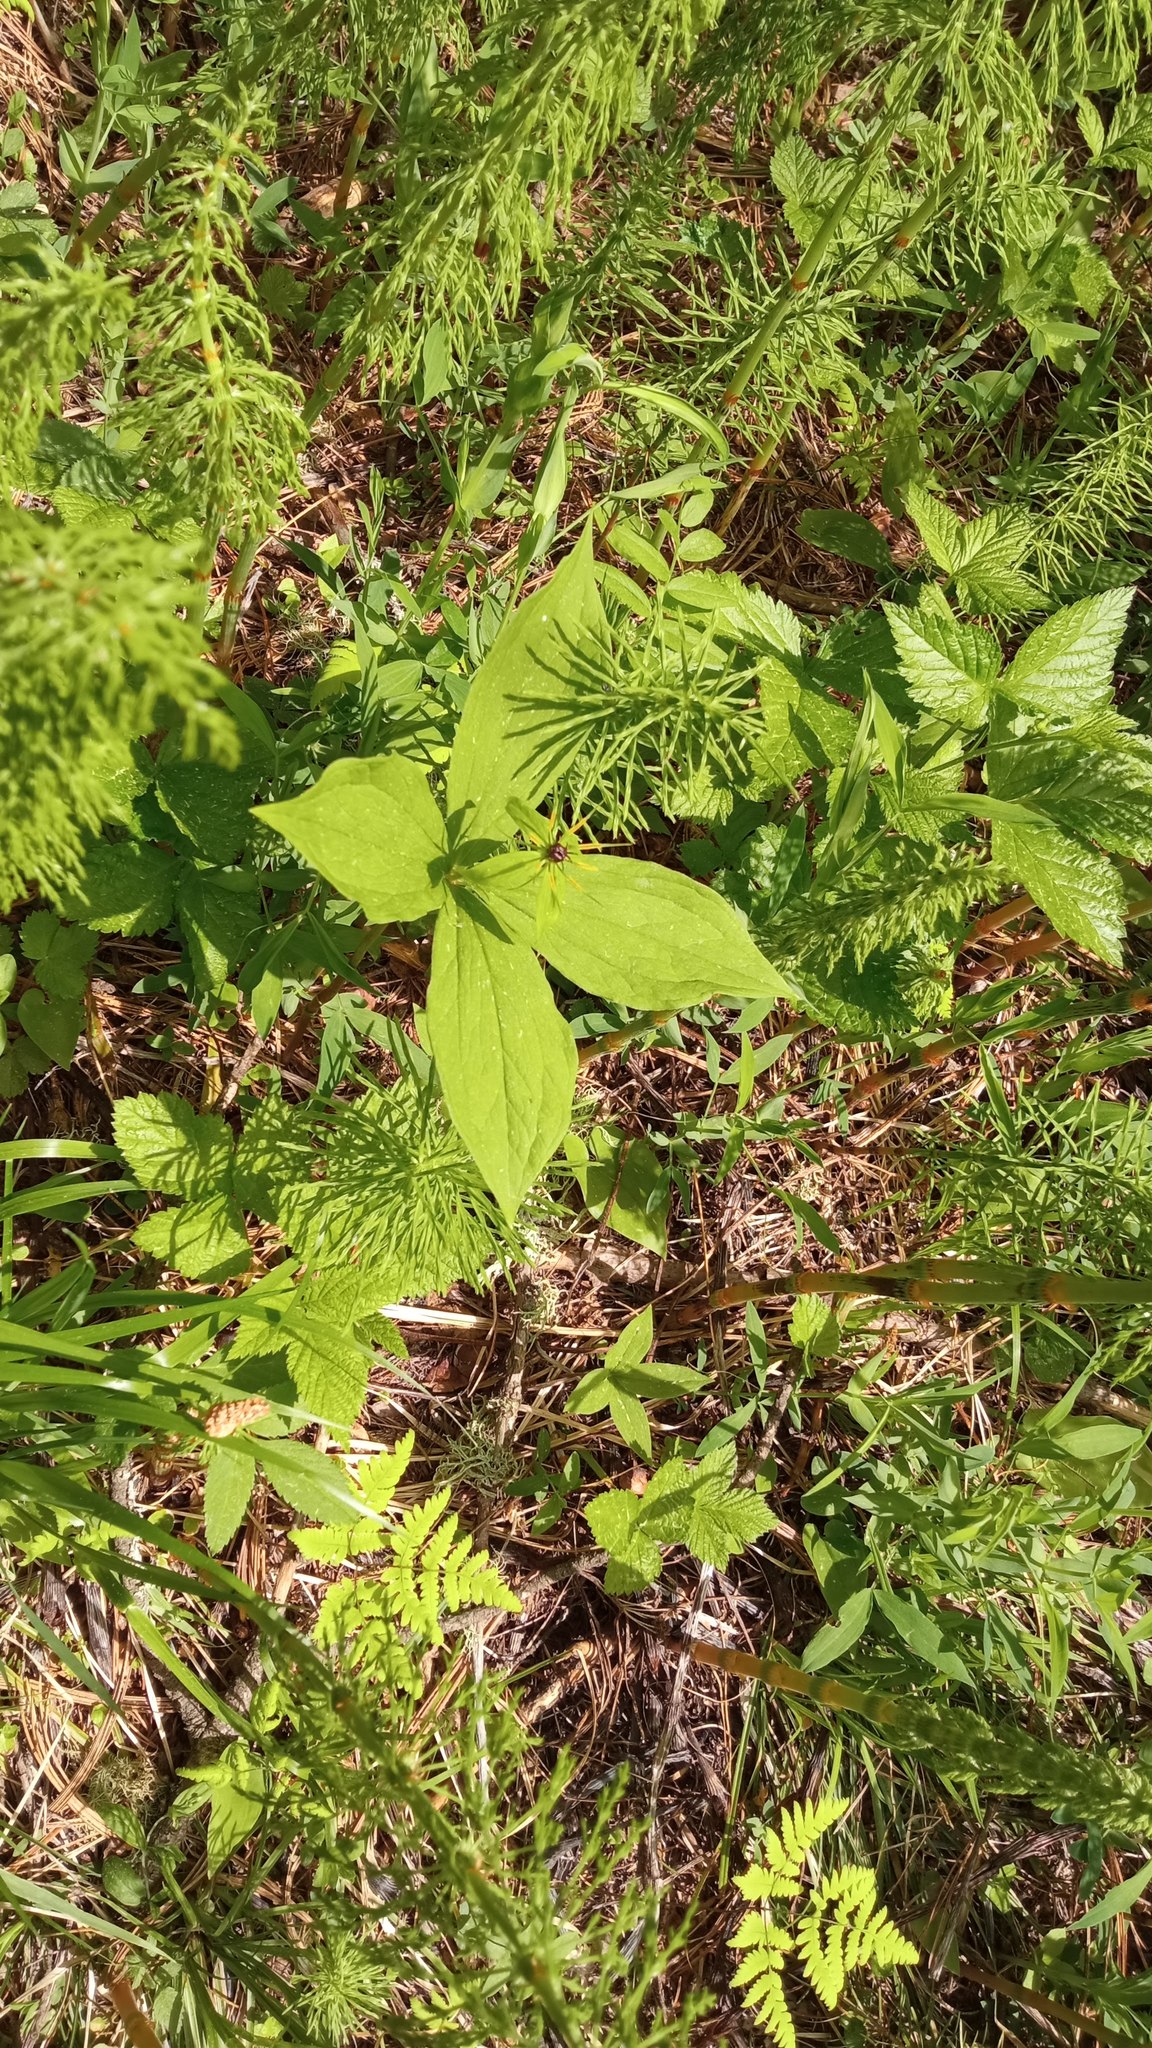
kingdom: Plantae
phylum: Tracheophyta
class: Liliopsida
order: Liliales
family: Melanthiaceae
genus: Paris
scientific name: Paris quadrifolia
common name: Herb-paris
